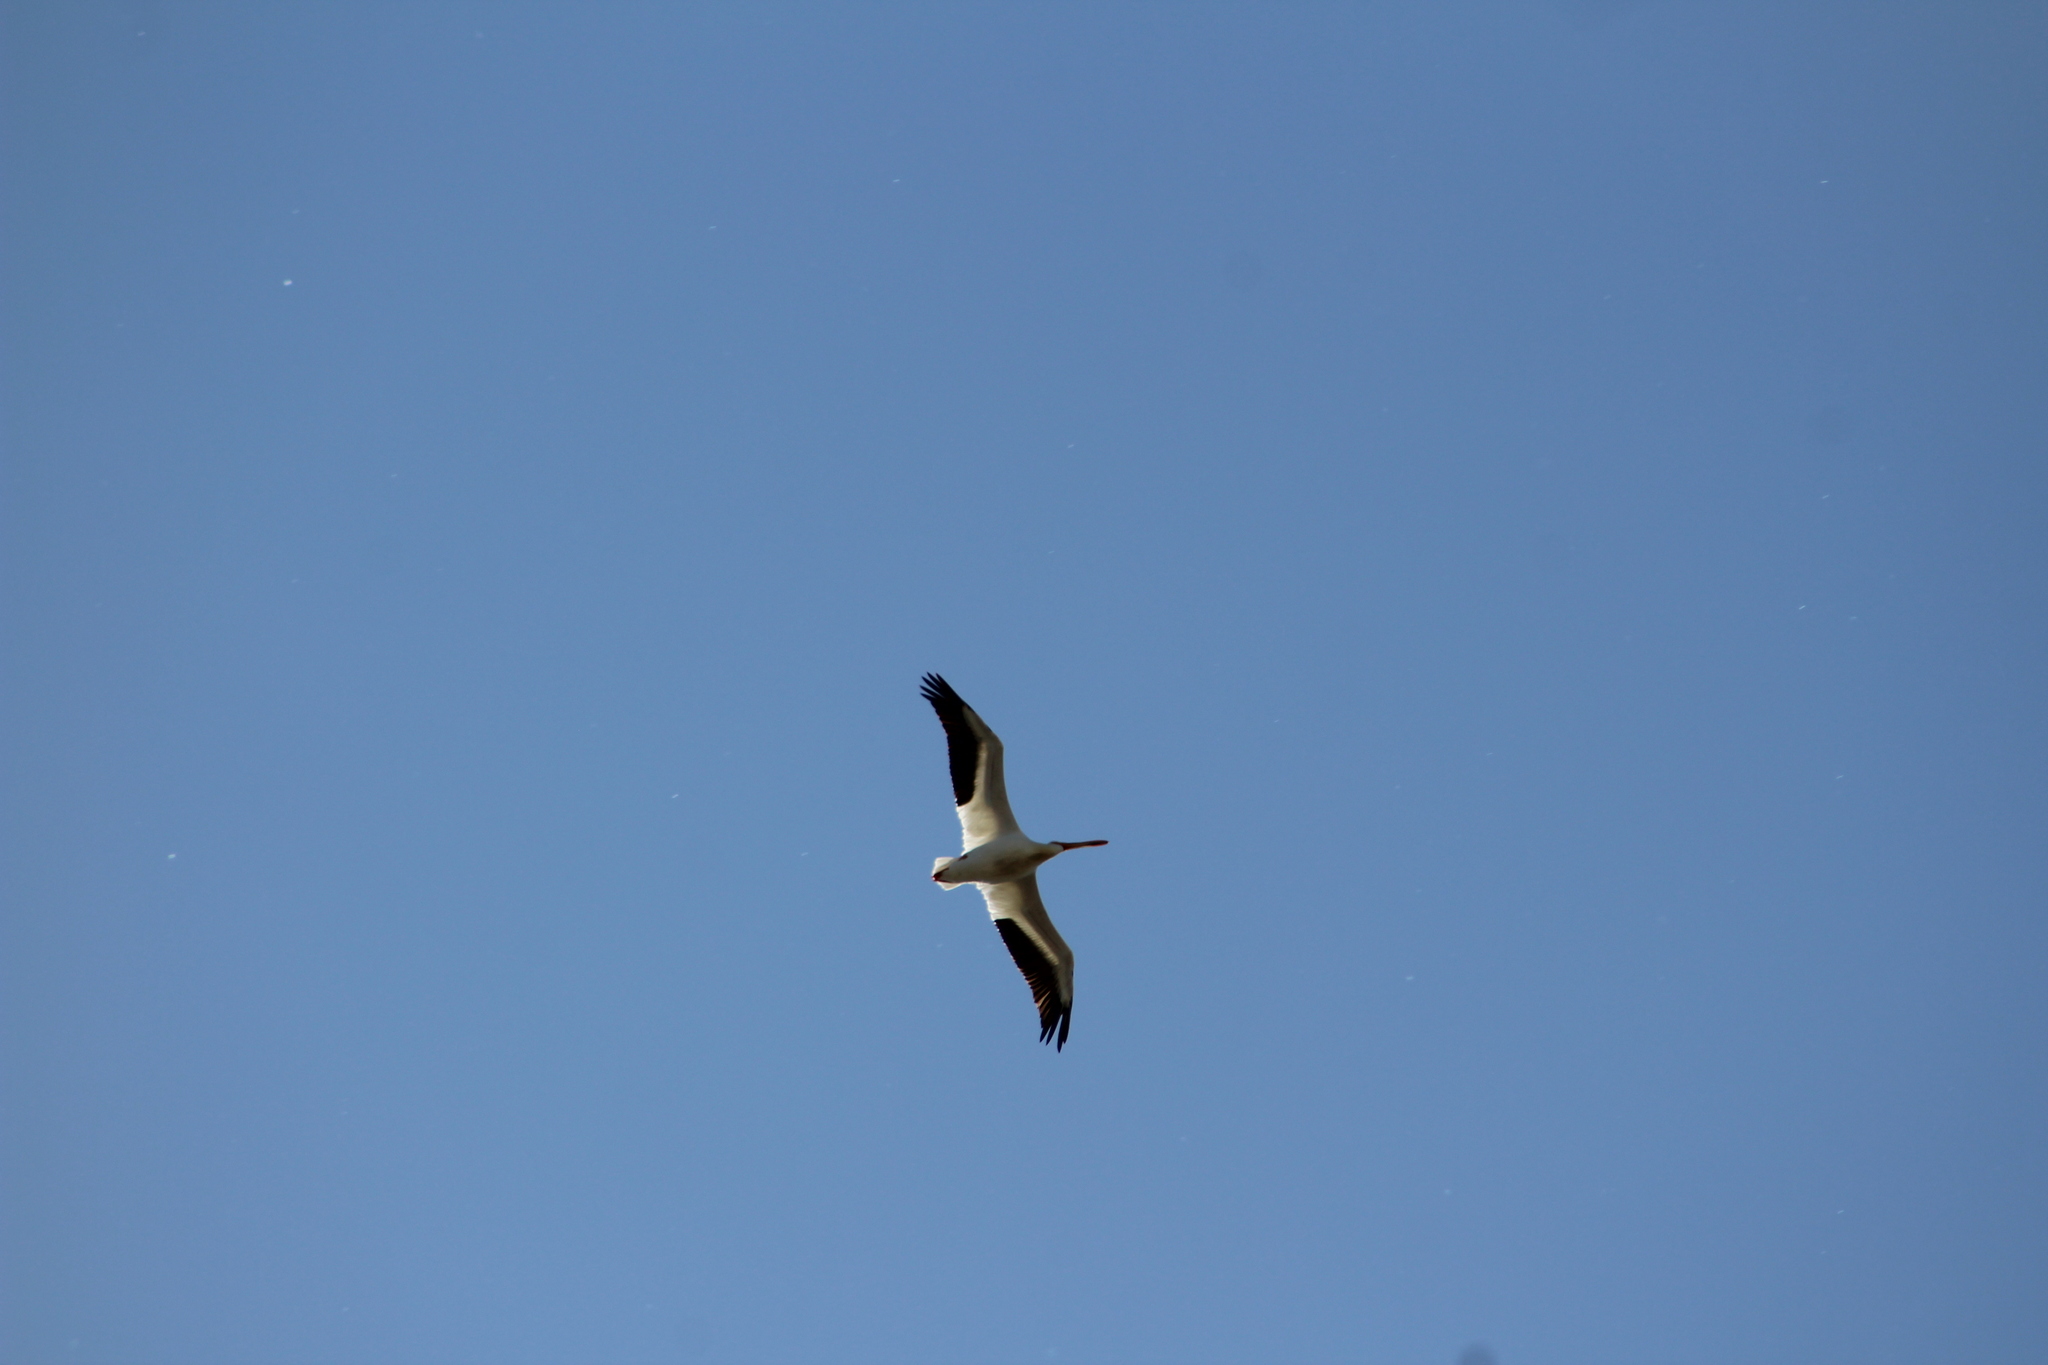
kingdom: Animalia
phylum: Chordata
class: Aves
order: Pelecaniformes
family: Pelecanidae
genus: Pelecanus
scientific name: Pelecanus erythrorhynchos
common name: American white pelican
